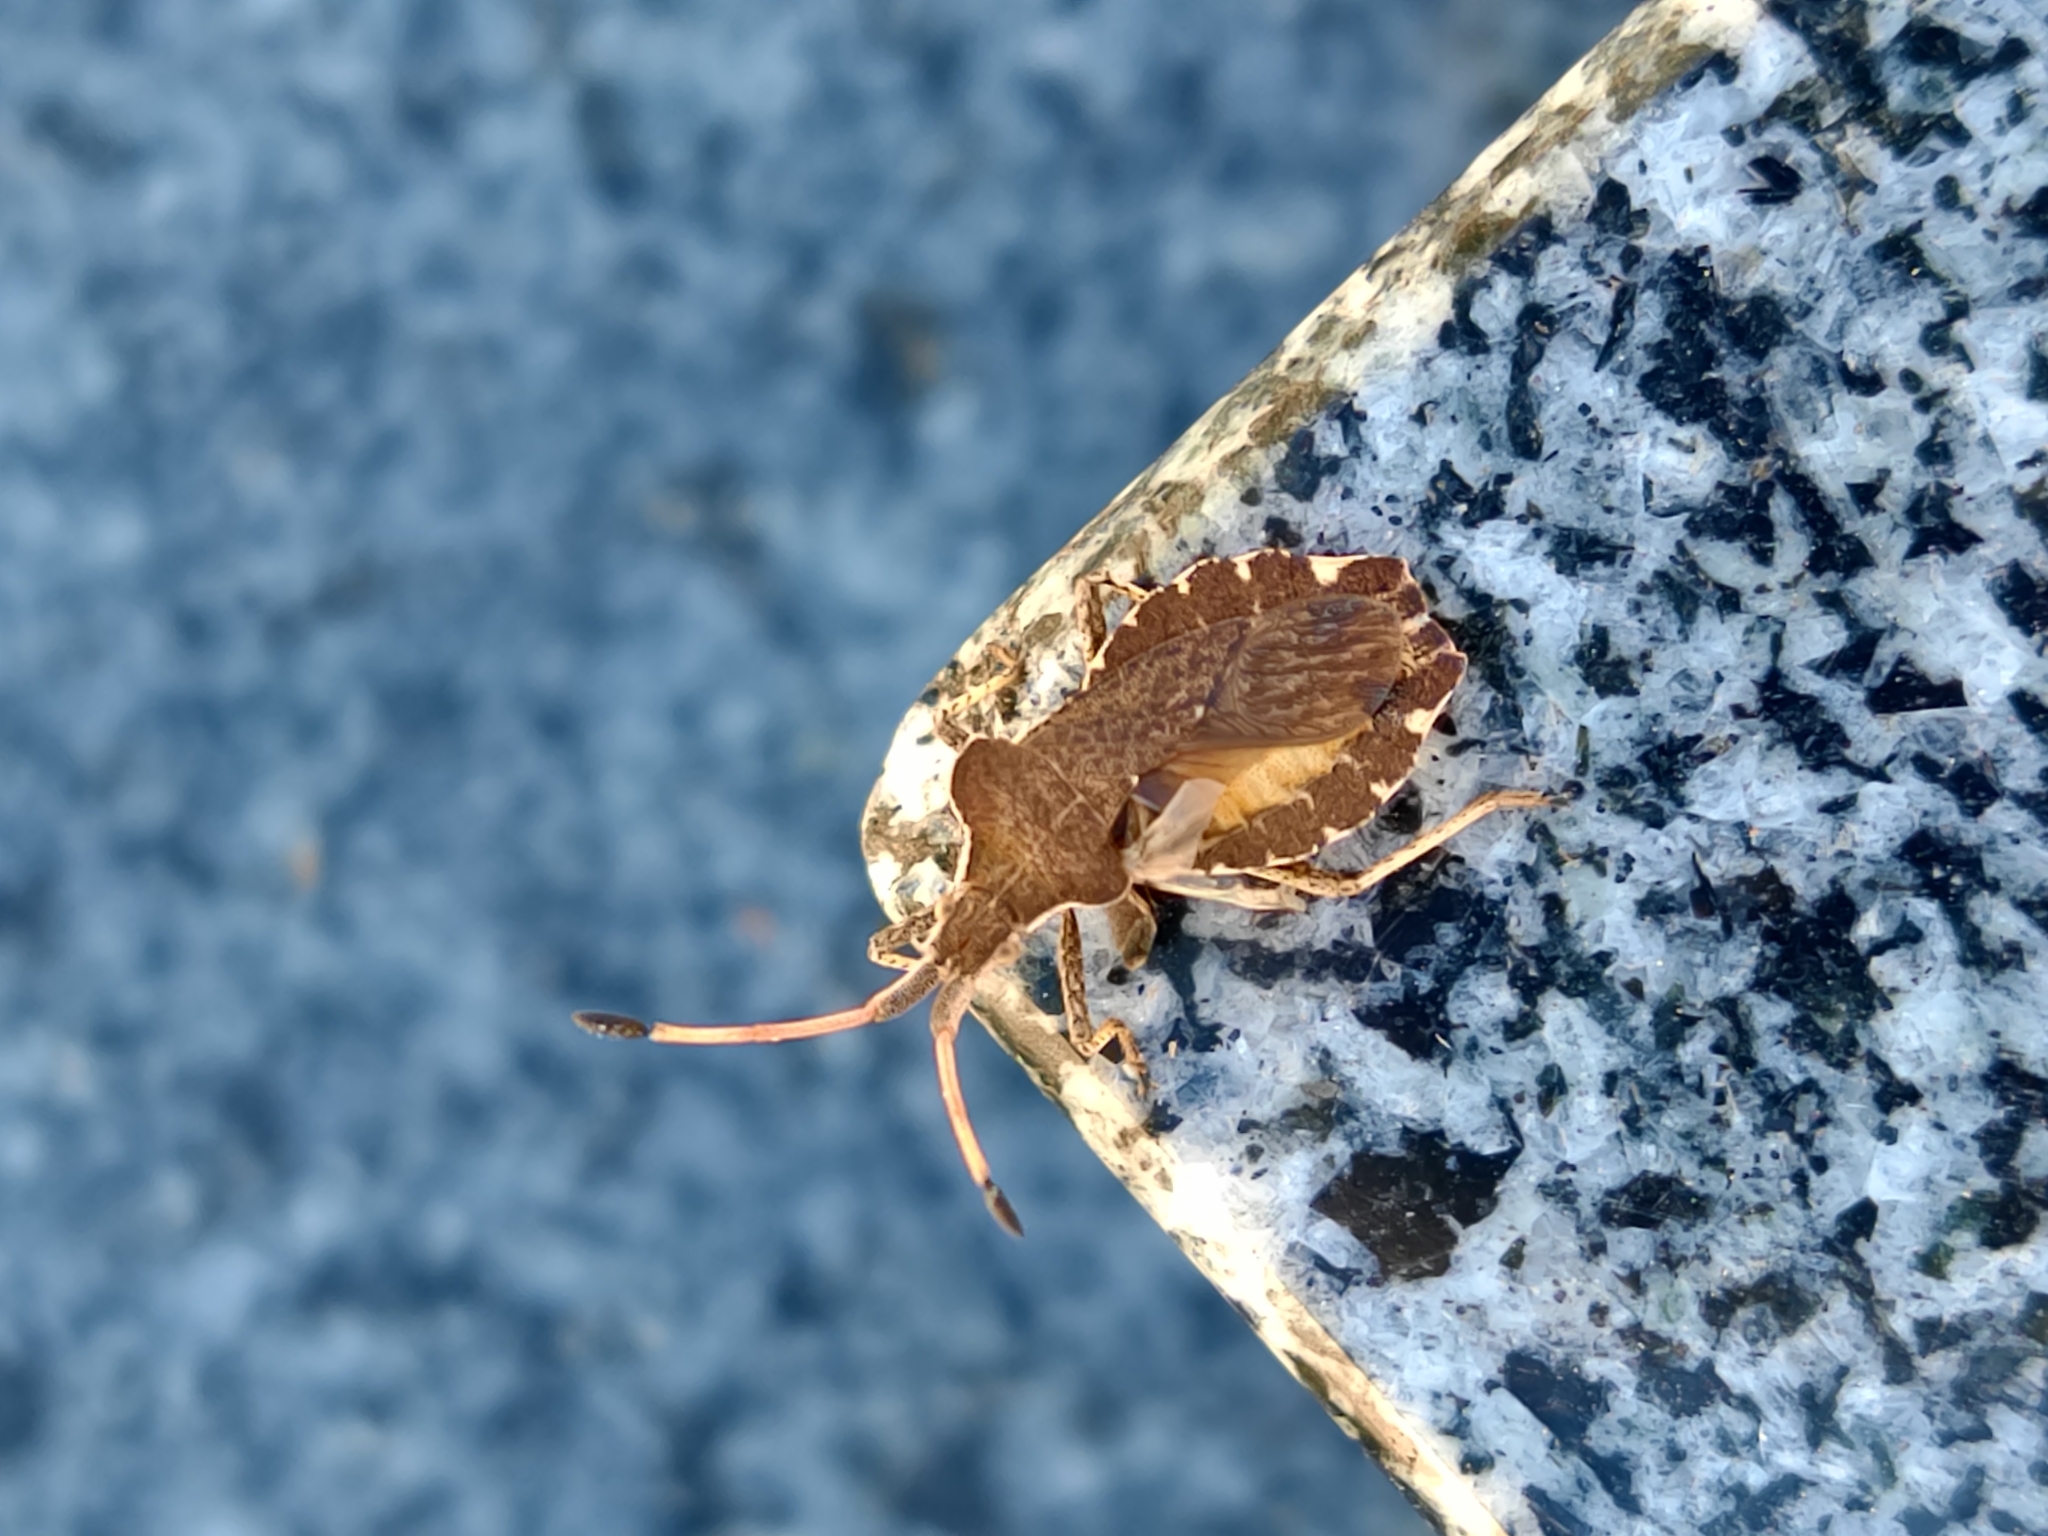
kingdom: Animalia
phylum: Arthropoda
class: Insecta
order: Hemiptera
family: Coreidae
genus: Enoplops
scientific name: Enoplops scapha
